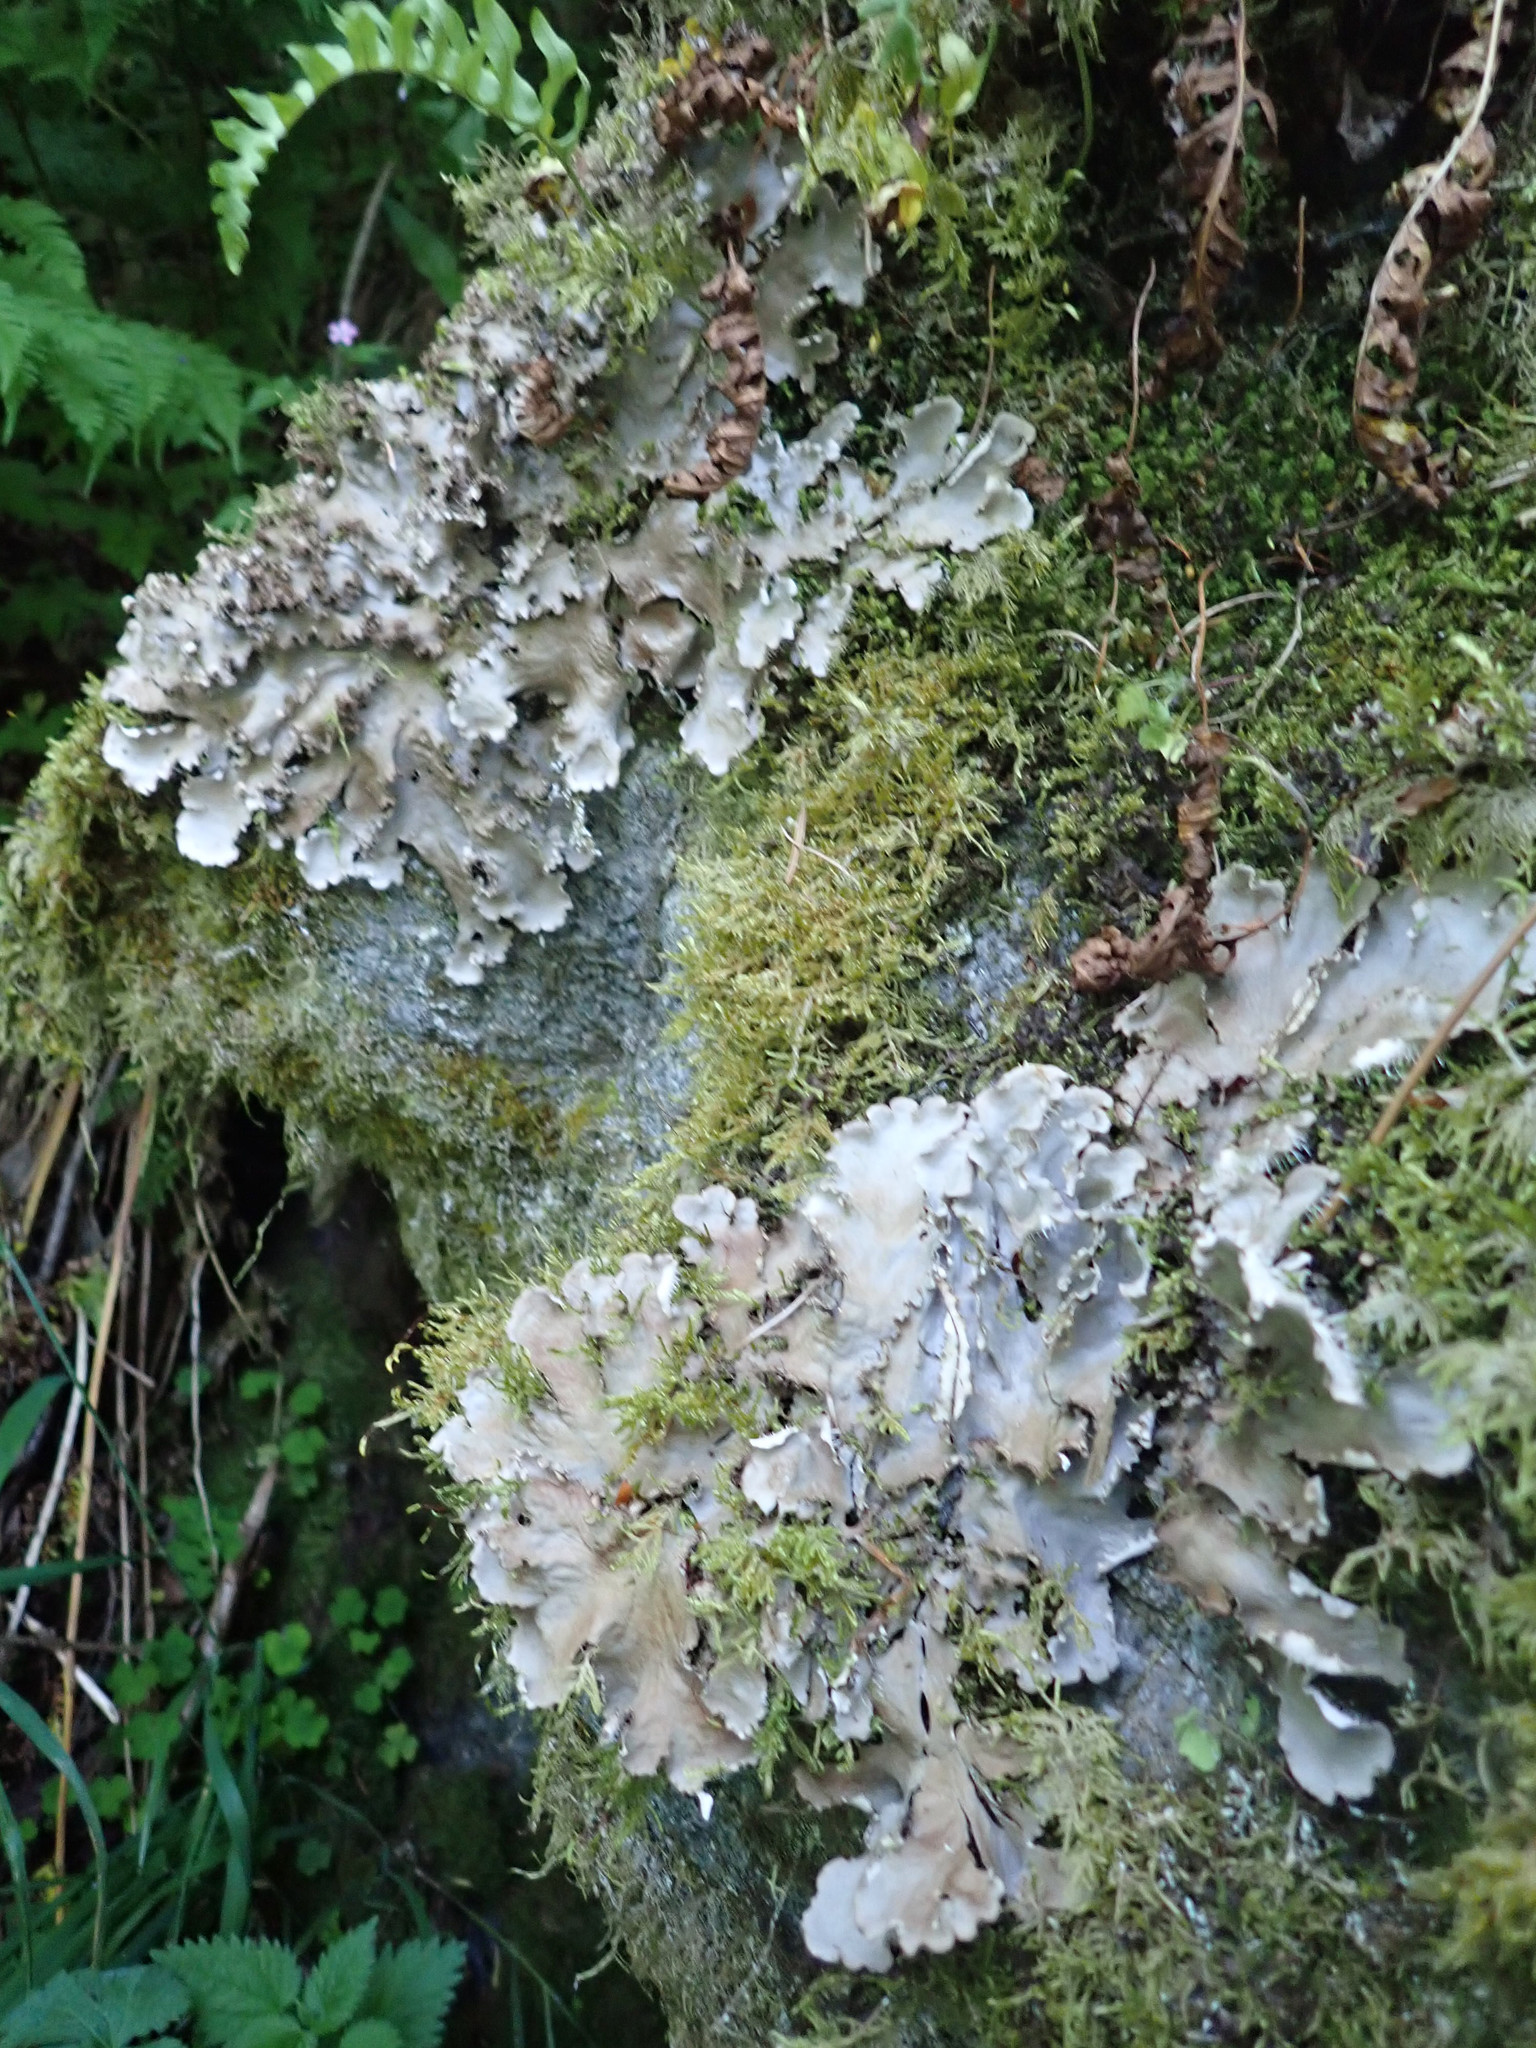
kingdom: Fungi
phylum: Ascomycota
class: Lecanoromycetes
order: Peltigerales
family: Peltigeraceae
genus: Peltigera
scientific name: Peltigera praetextata
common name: Scaly dog-lichen
